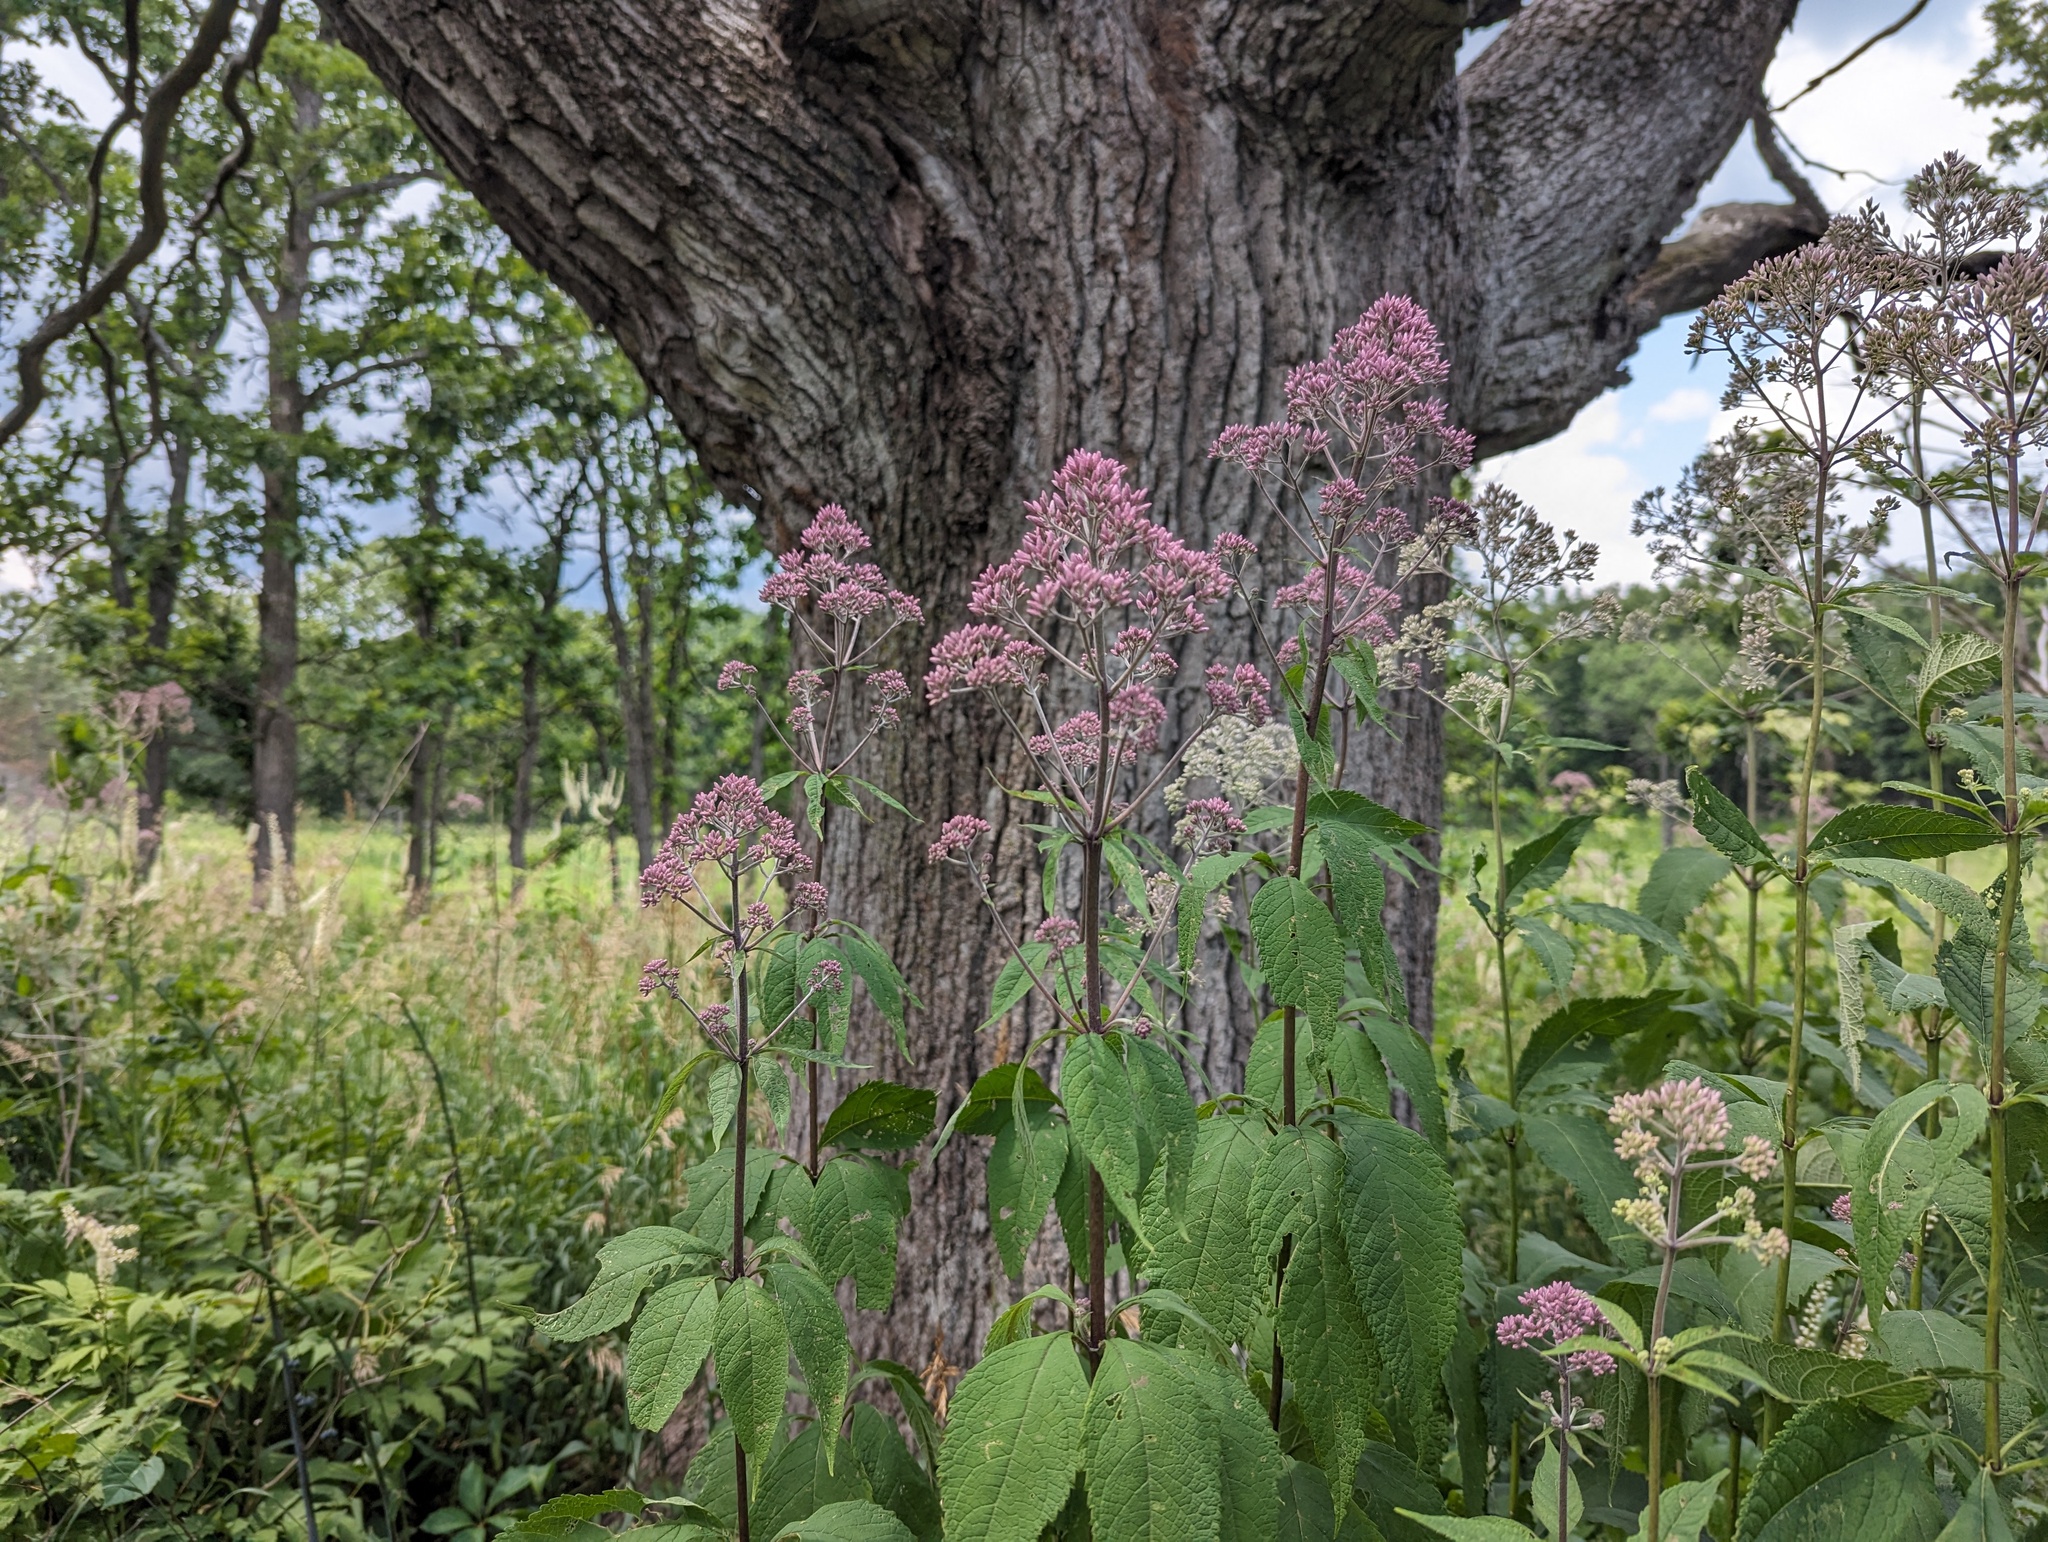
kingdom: Plantae
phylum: Tracheophyta
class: Magnoliopsida
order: Asterales
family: Asteraceae
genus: Eutrochium
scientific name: Eutrochium purpureum
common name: Gravelroot
